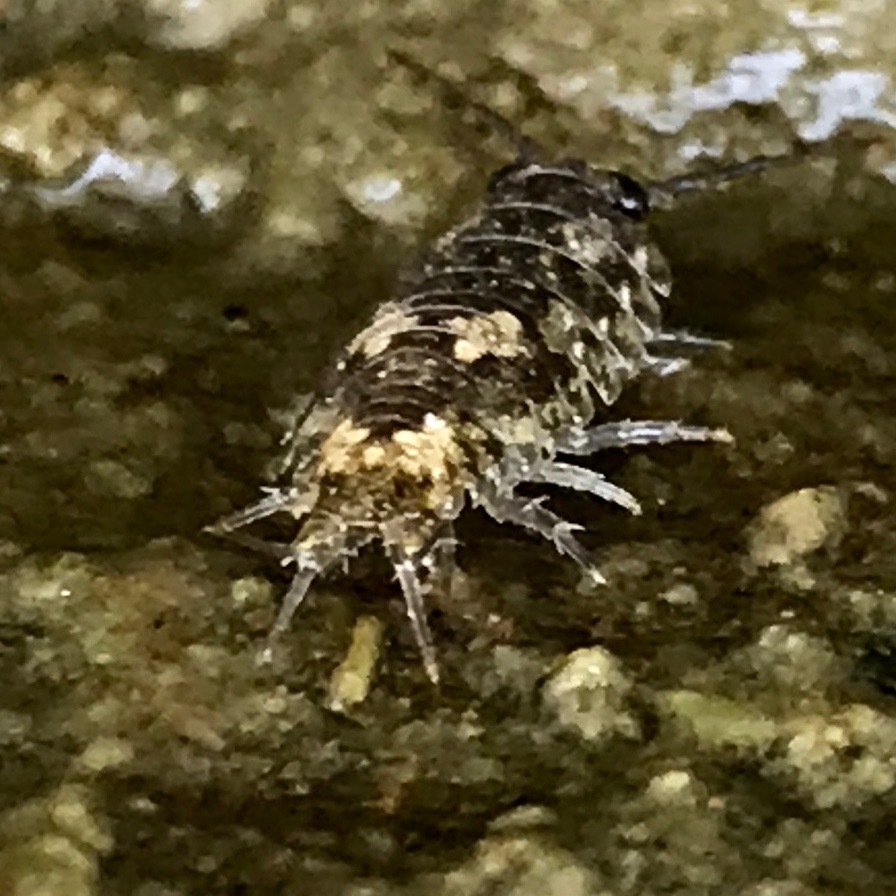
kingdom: Animalia
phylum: Arthropoda
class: Malacostraca
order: Isopoda
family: Ligiidae
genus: Ligia
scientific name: Ligia pallasii
